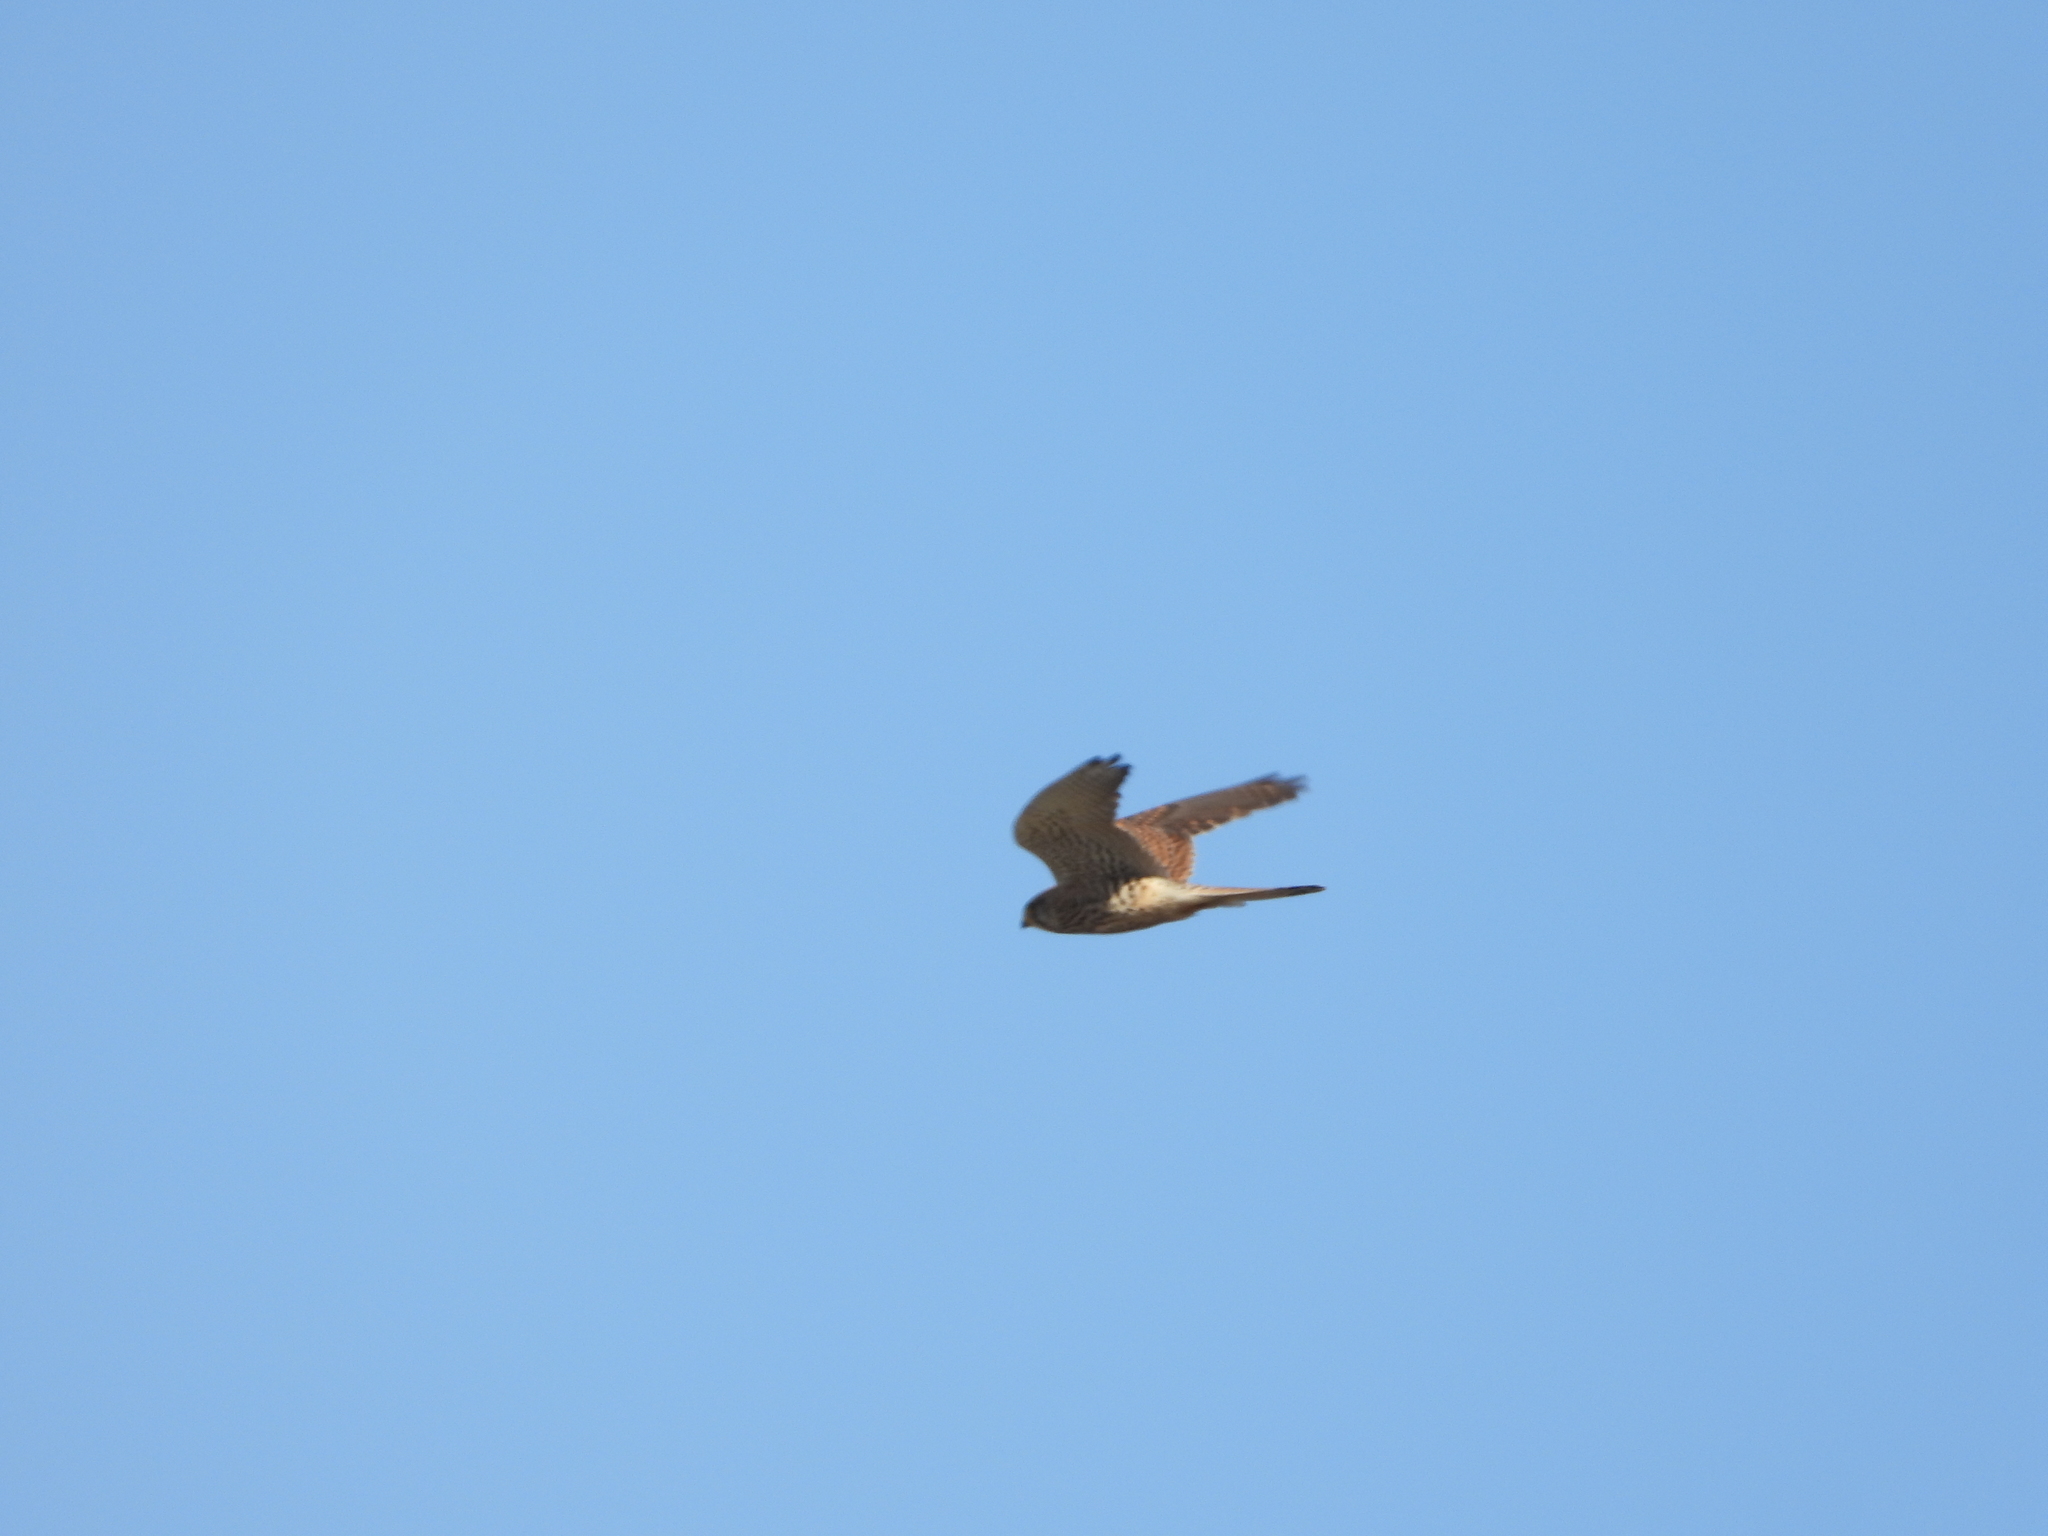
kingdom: Animalia
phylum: Chordata
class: Aves
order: Falconiformes
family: Falconidae
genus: Falco
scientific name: Falco tinnunculus
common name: Common kestrel
